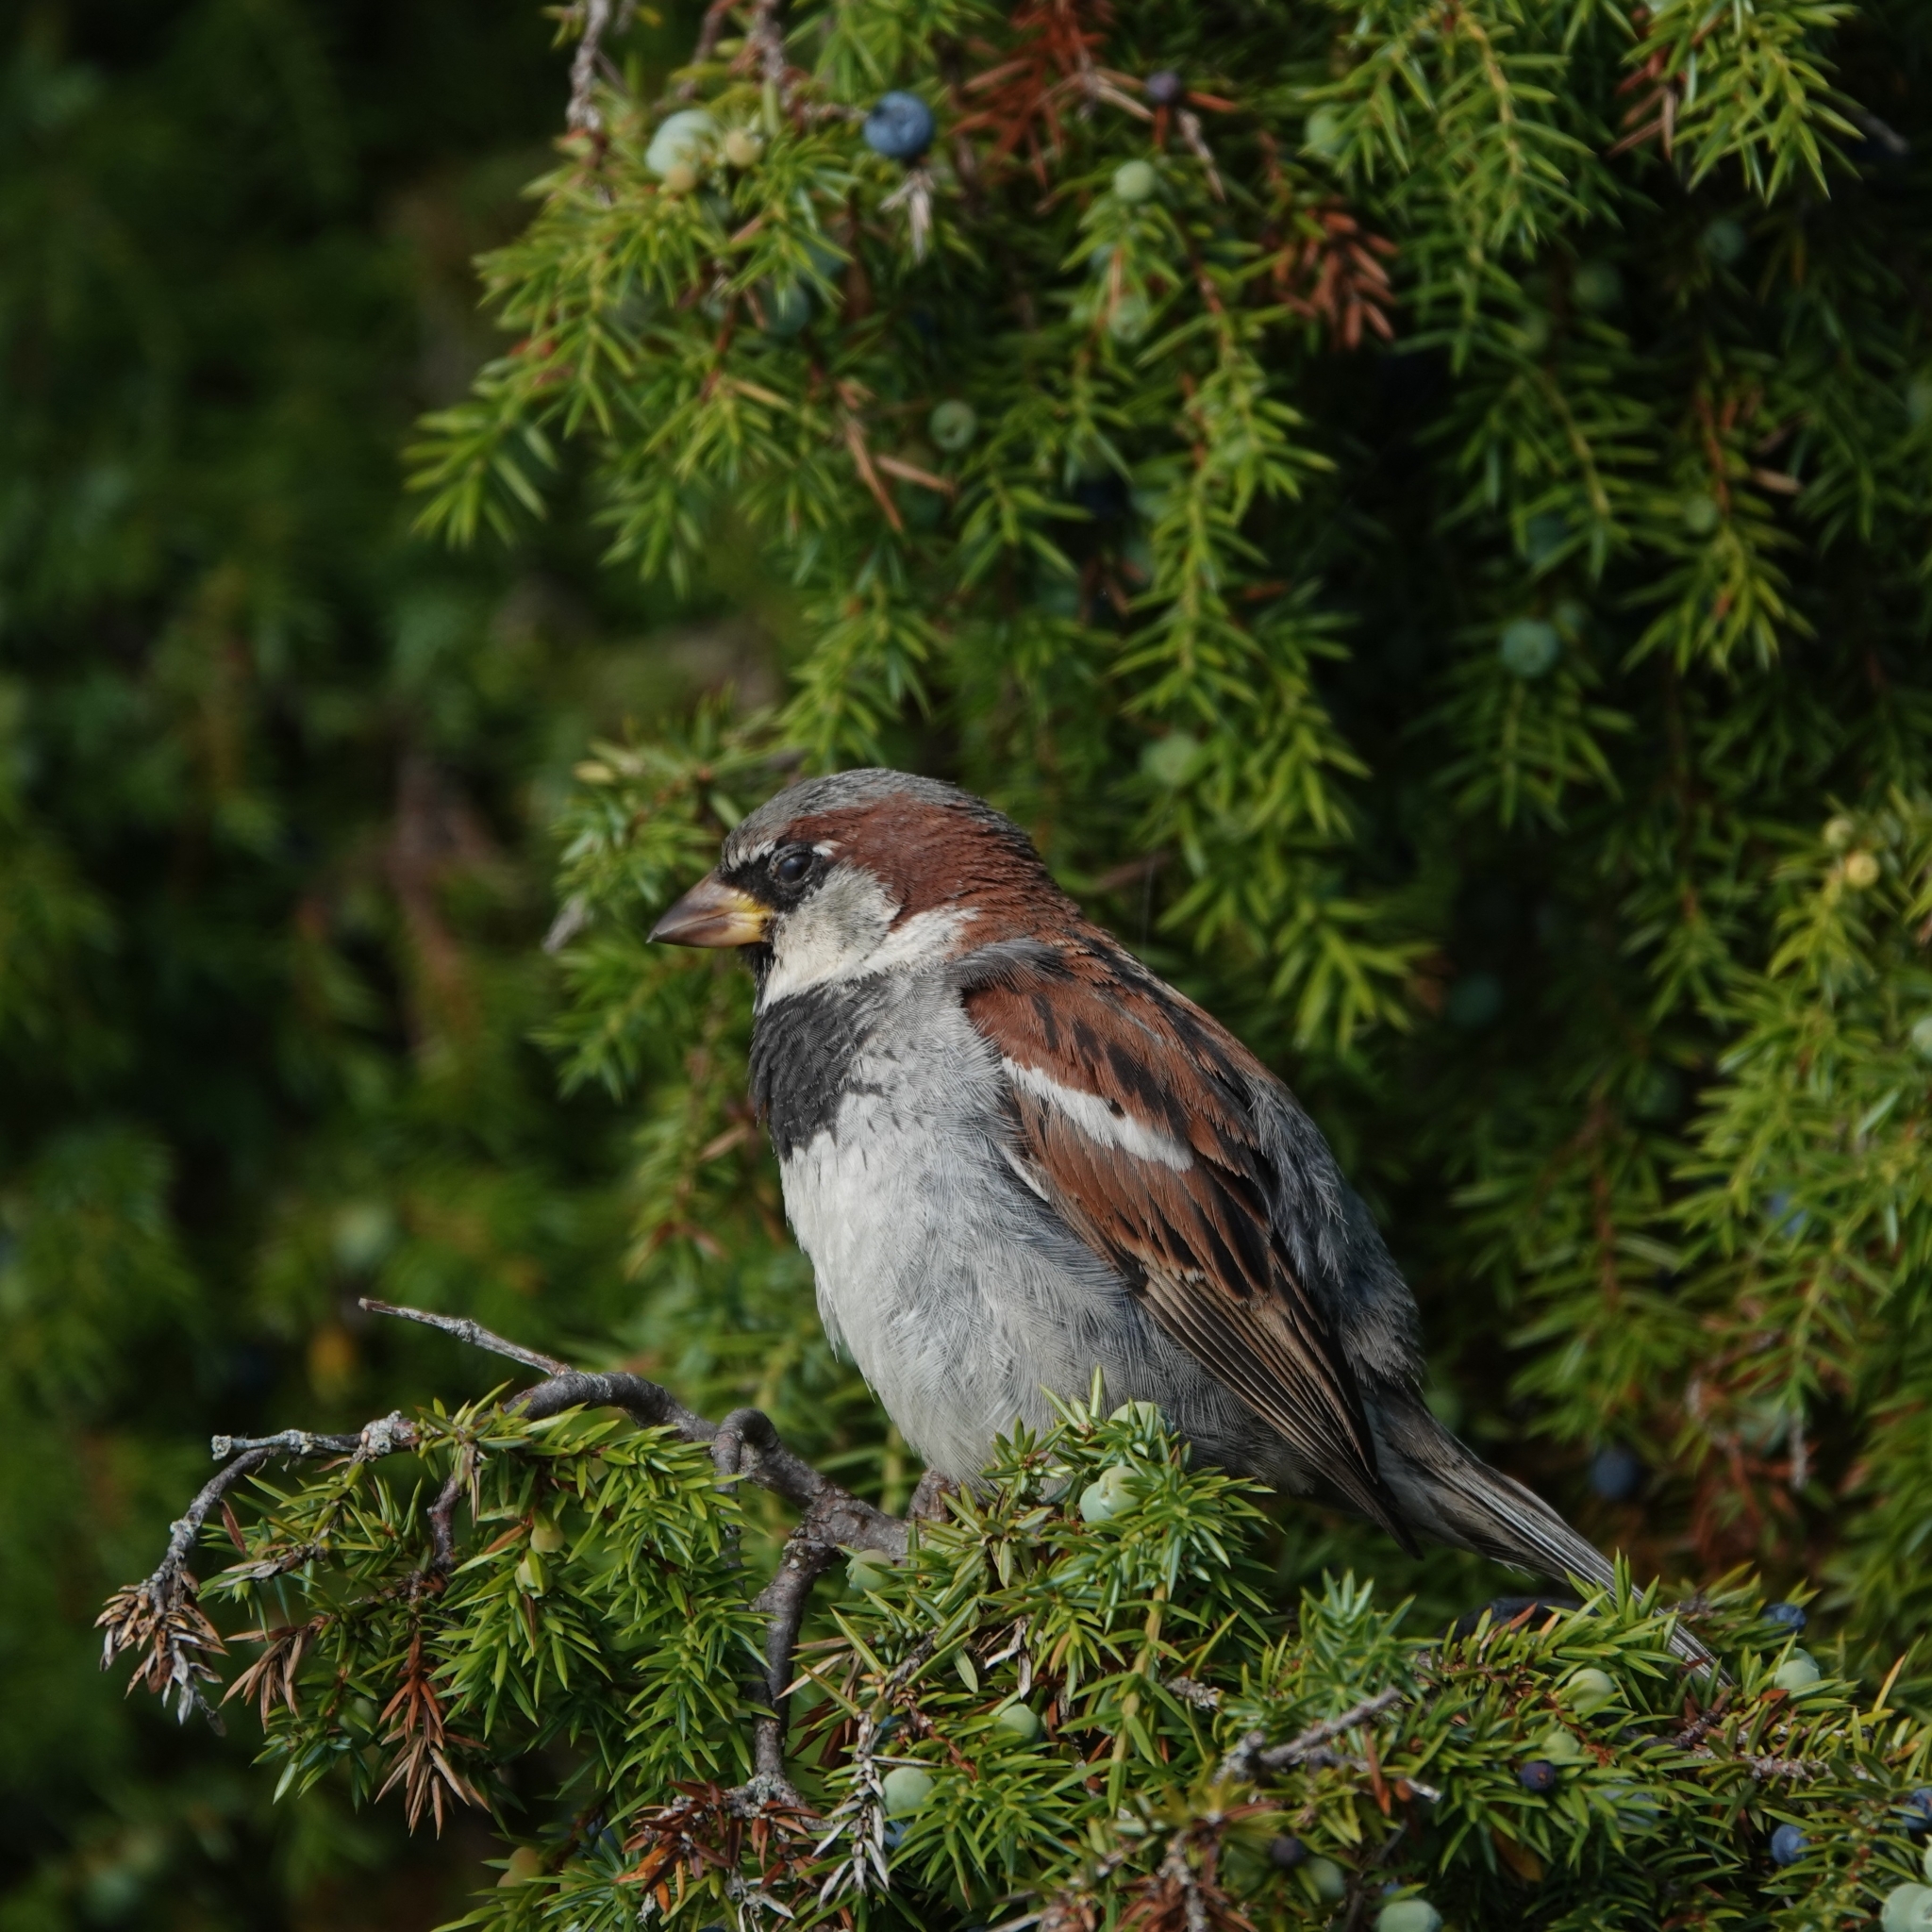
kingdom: Animalia
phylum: Chordata
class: Aves
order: Passeriformes
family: Passeridae
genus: Passer
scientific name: Passer domesticus
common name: House sparrow
